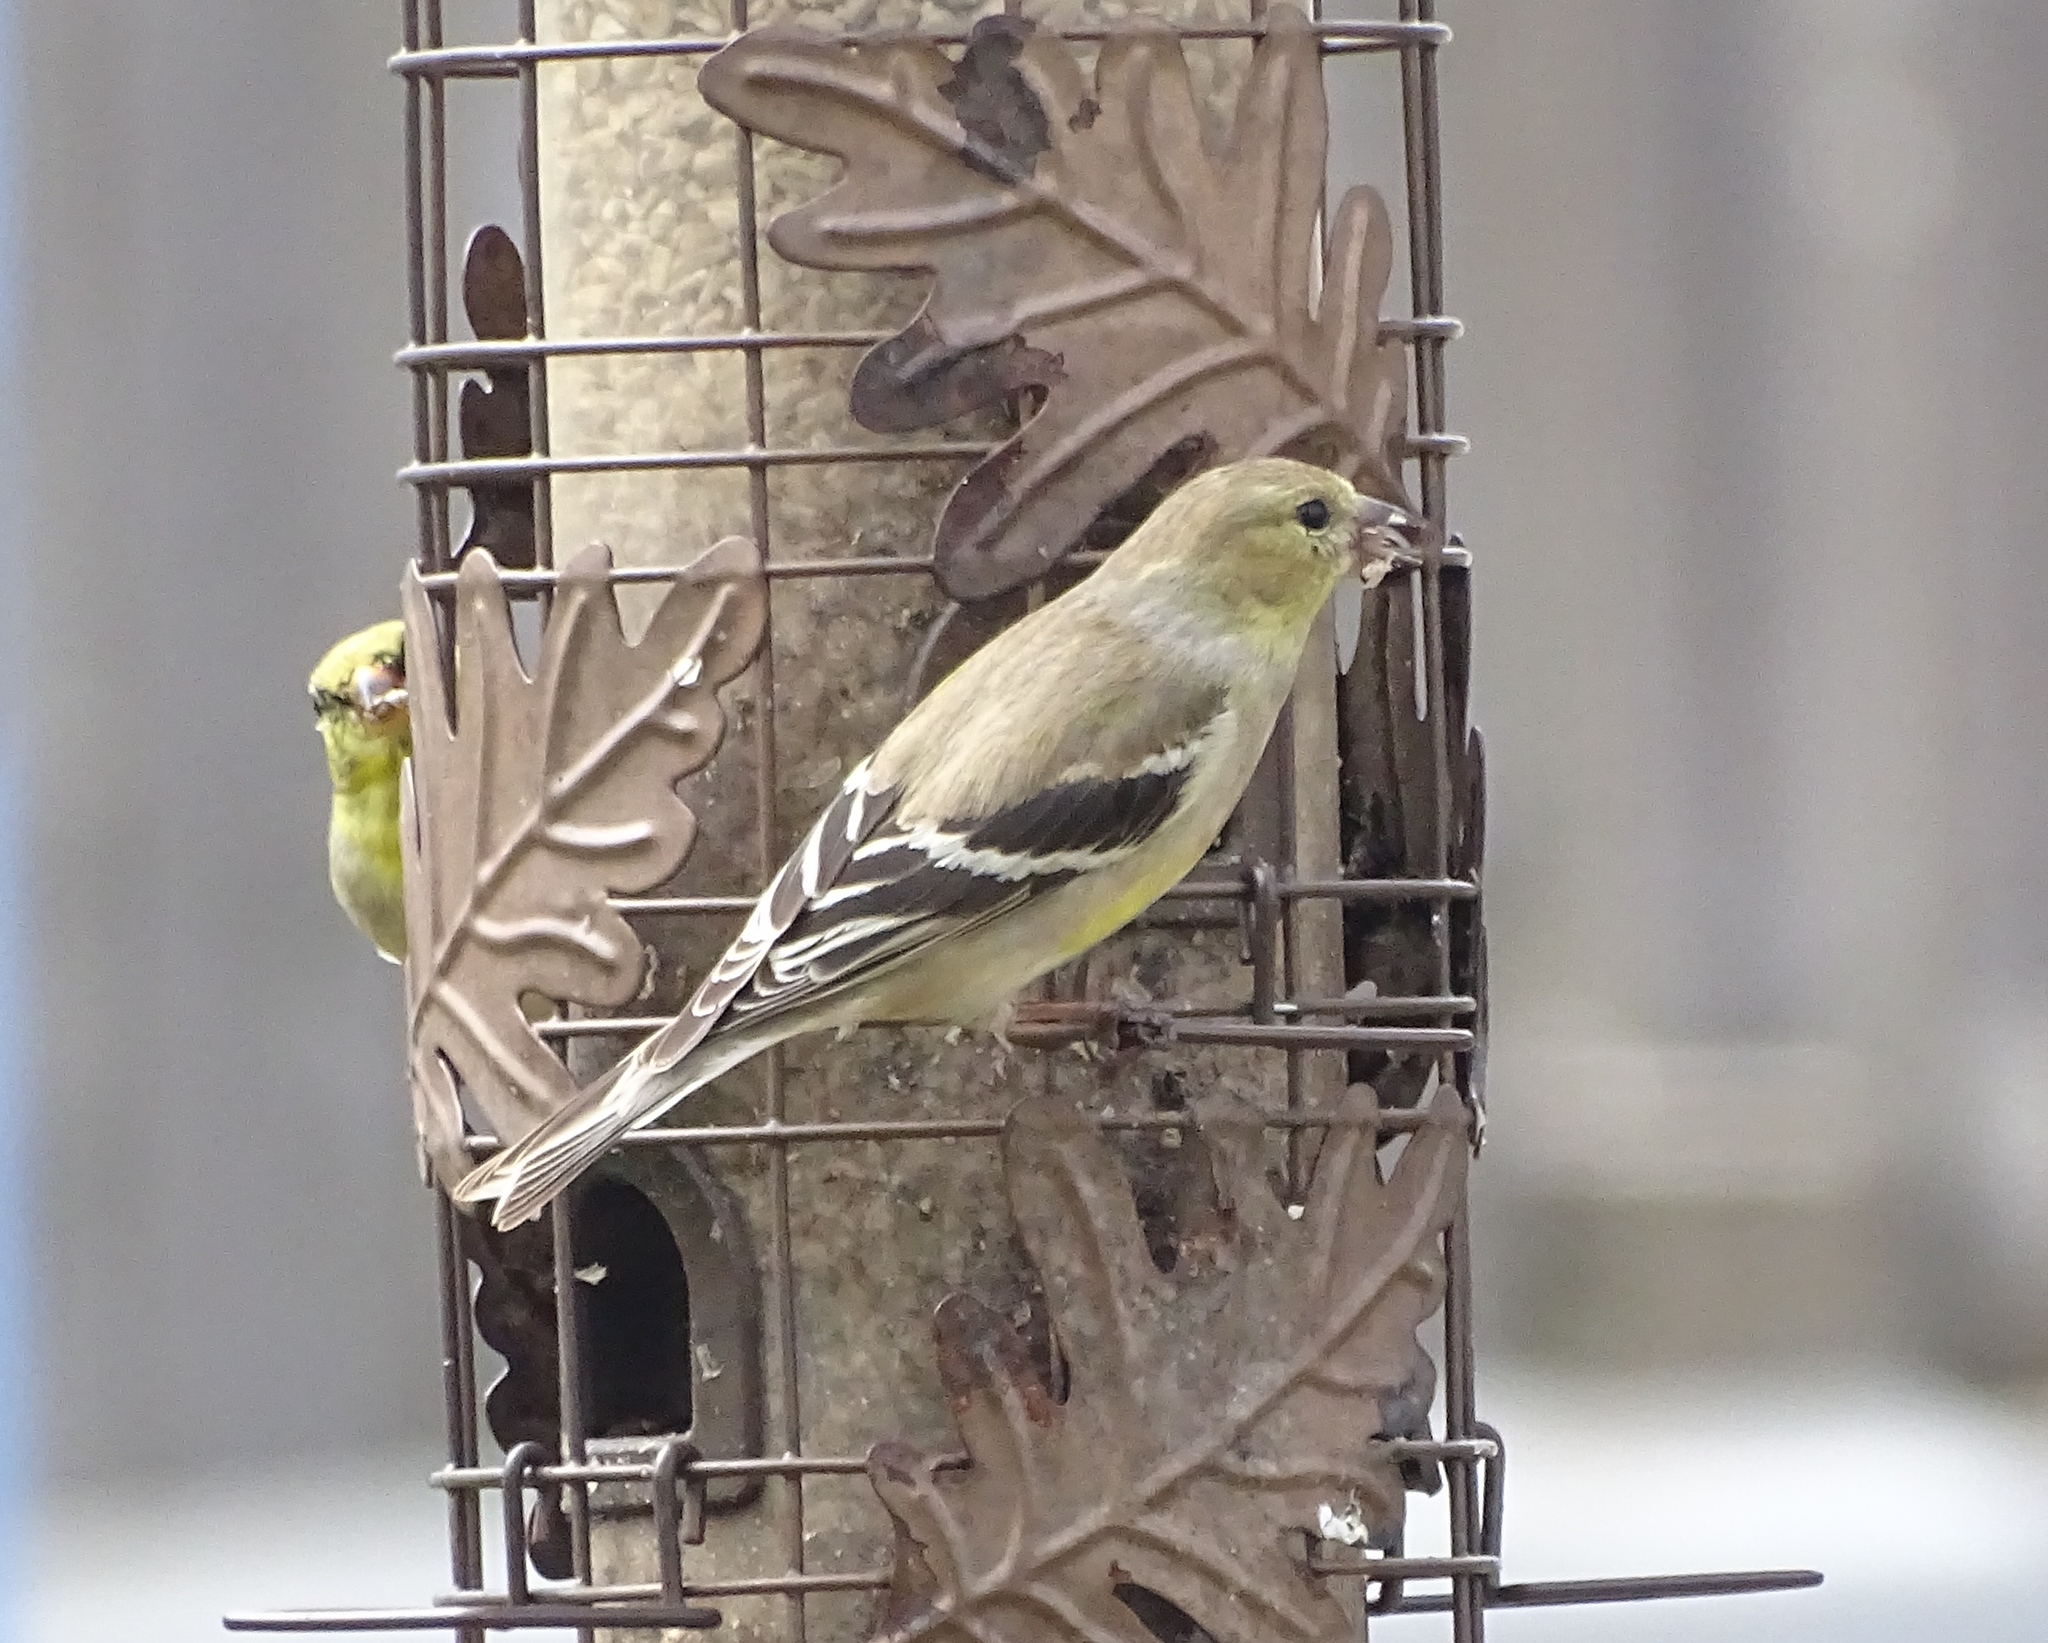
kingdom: Animalia
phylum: Chordata
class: Aves
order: Passeriformes
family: Fringillidae
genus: Spinus
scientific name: Spinus tristis
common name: American goldfinch
